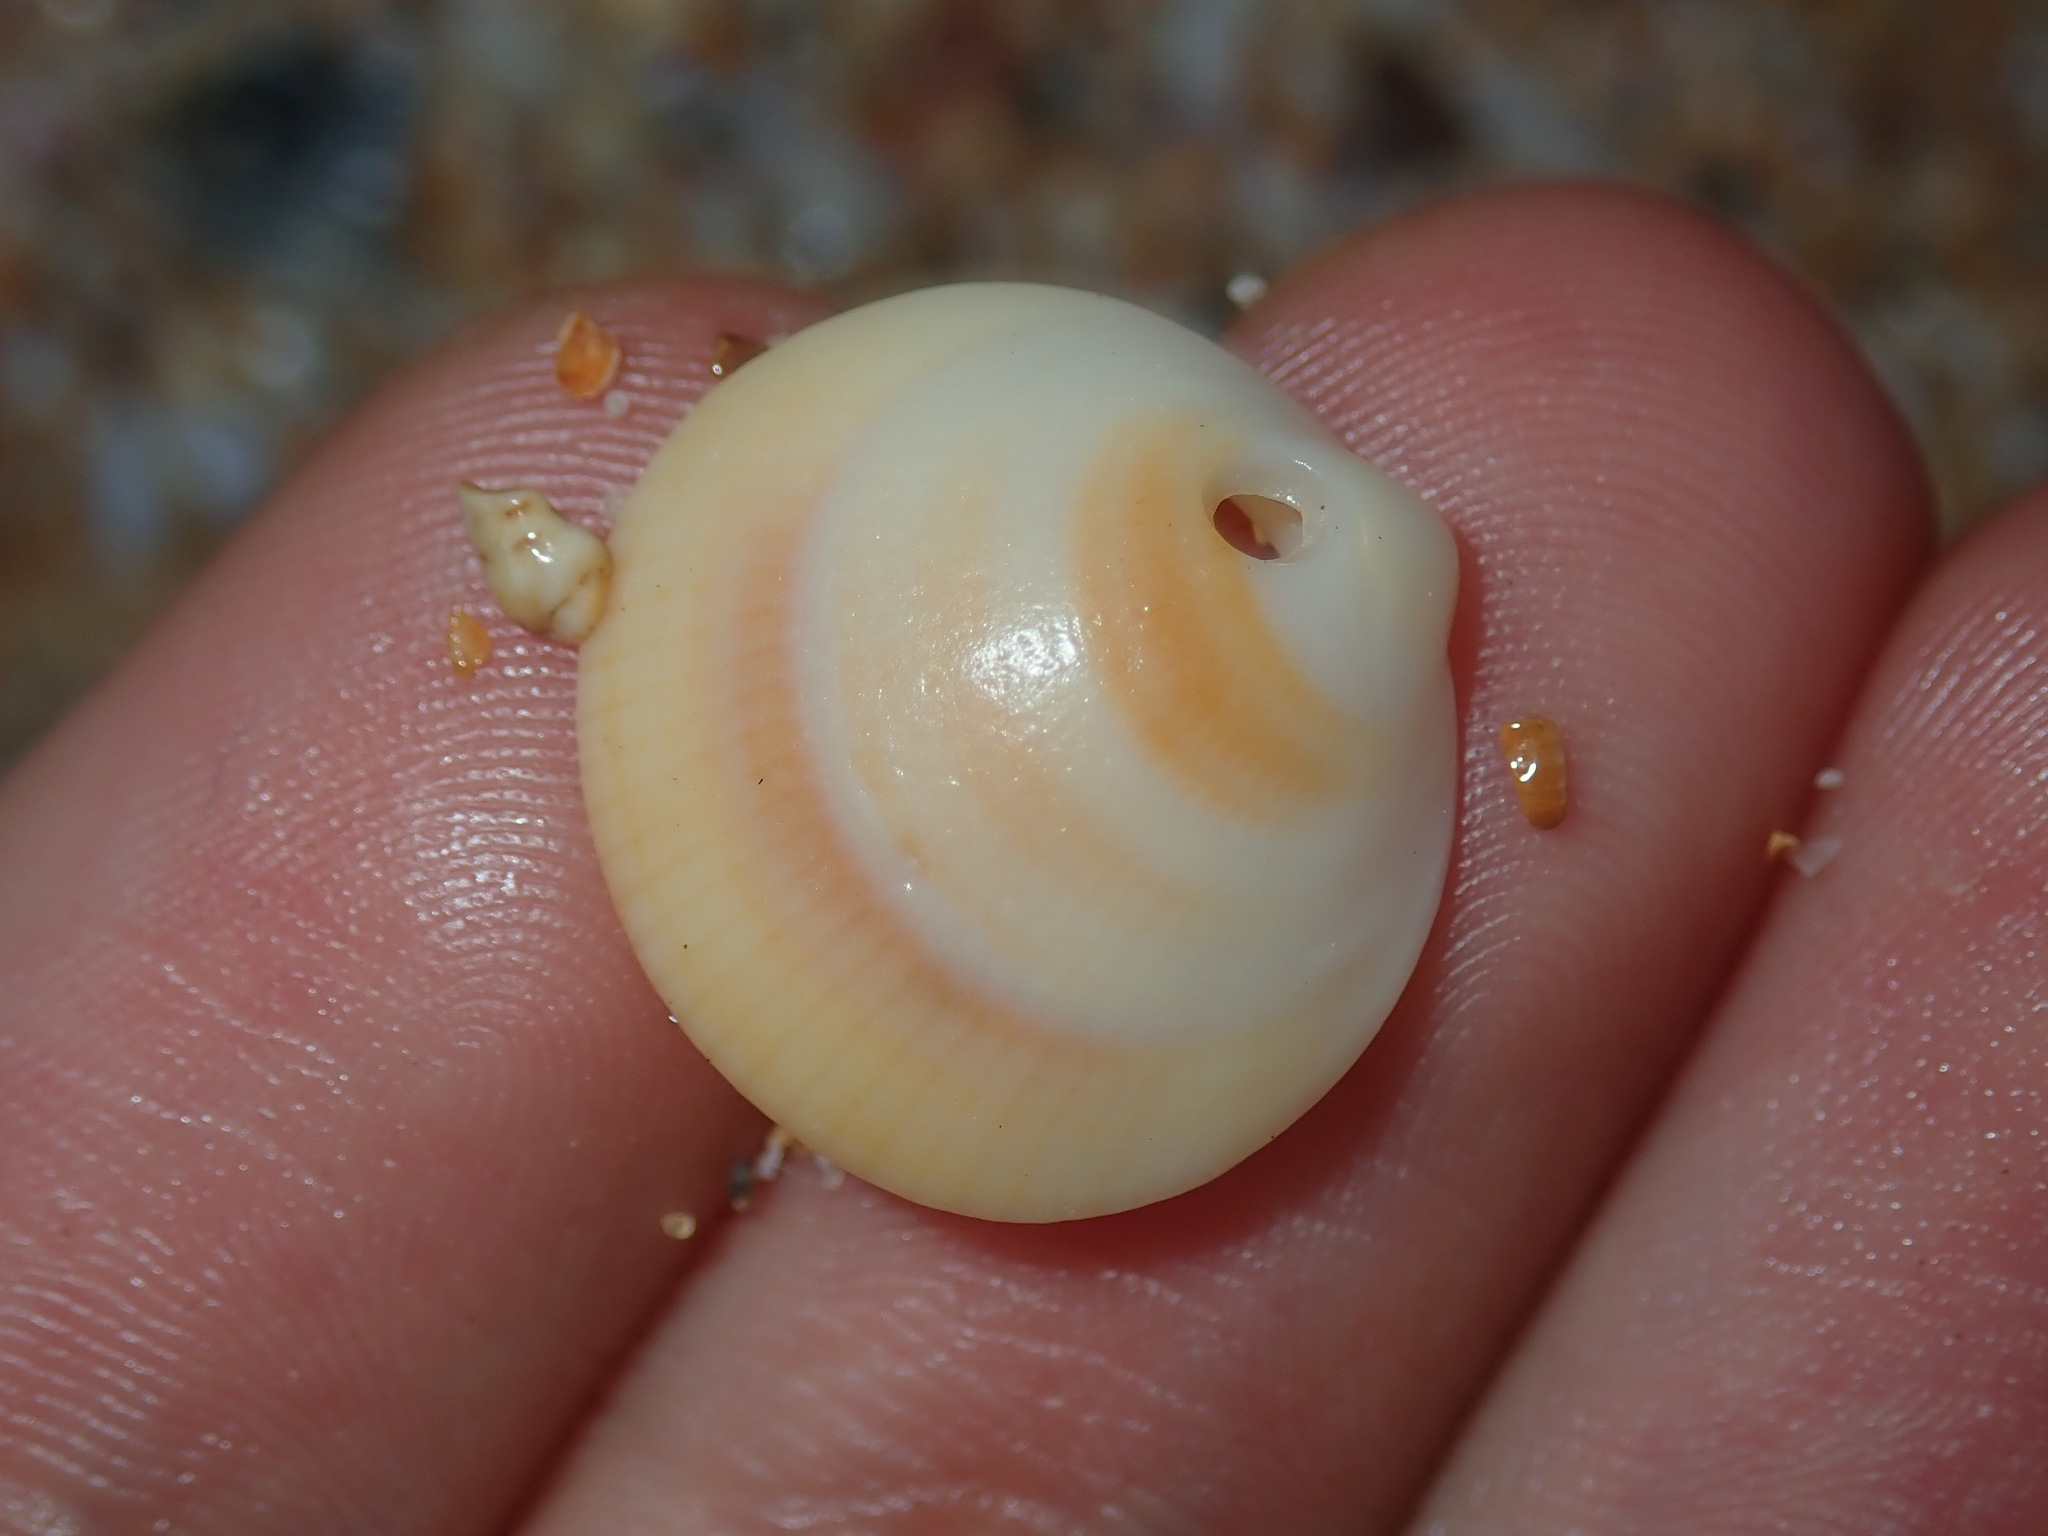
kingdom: Animalia
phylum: Mollusca
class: Bivalvia
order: Arcida
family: Glycymerididae
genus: Glycymeris
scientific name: Glycymeris grayana
